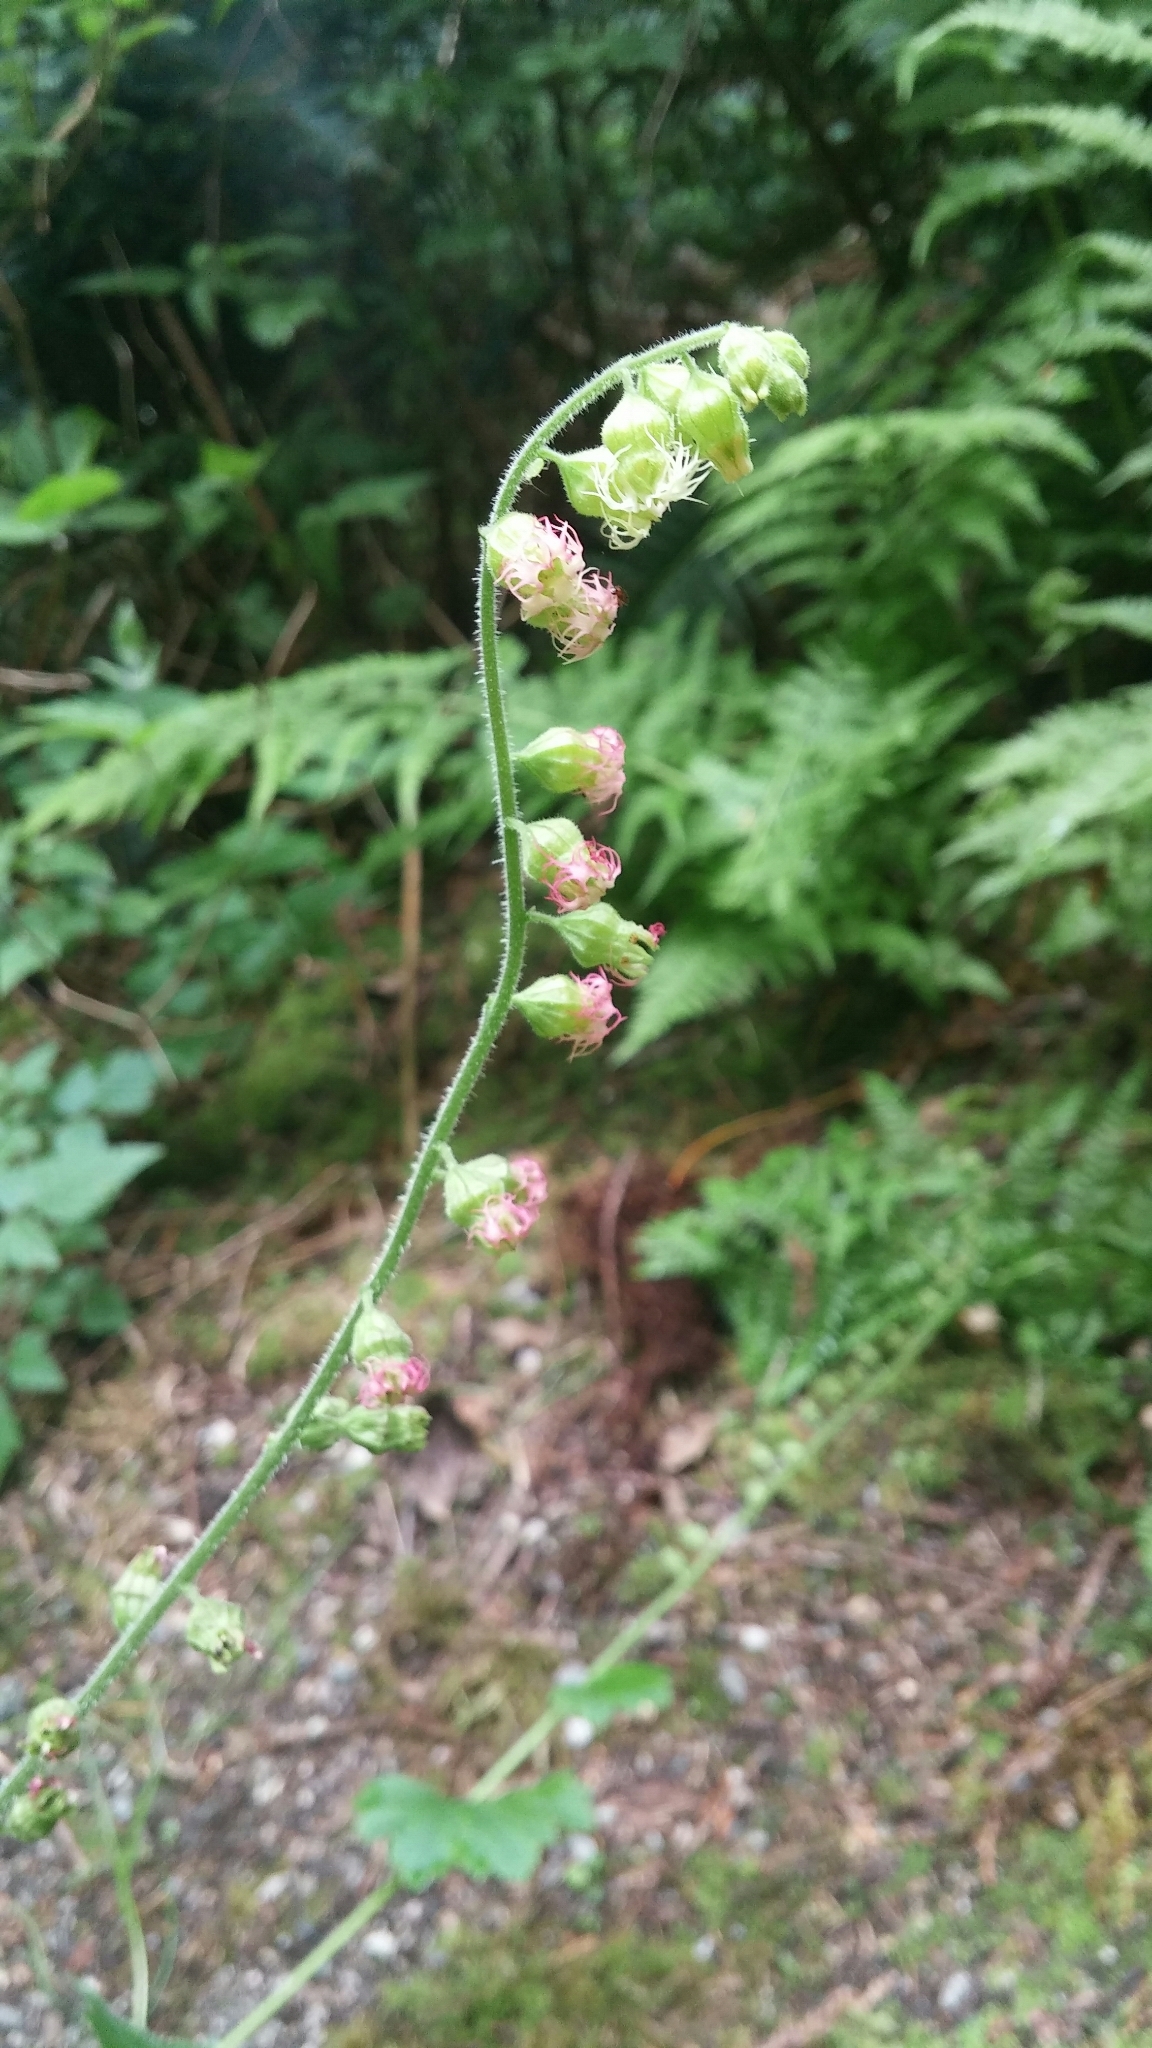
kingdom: Plantae
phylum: Tracheophyta
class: Magnoliopsida
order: Saxifragales
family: Saxifragaceae
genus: Tellima
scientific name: Tellima grandiflora
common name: Fringecups
